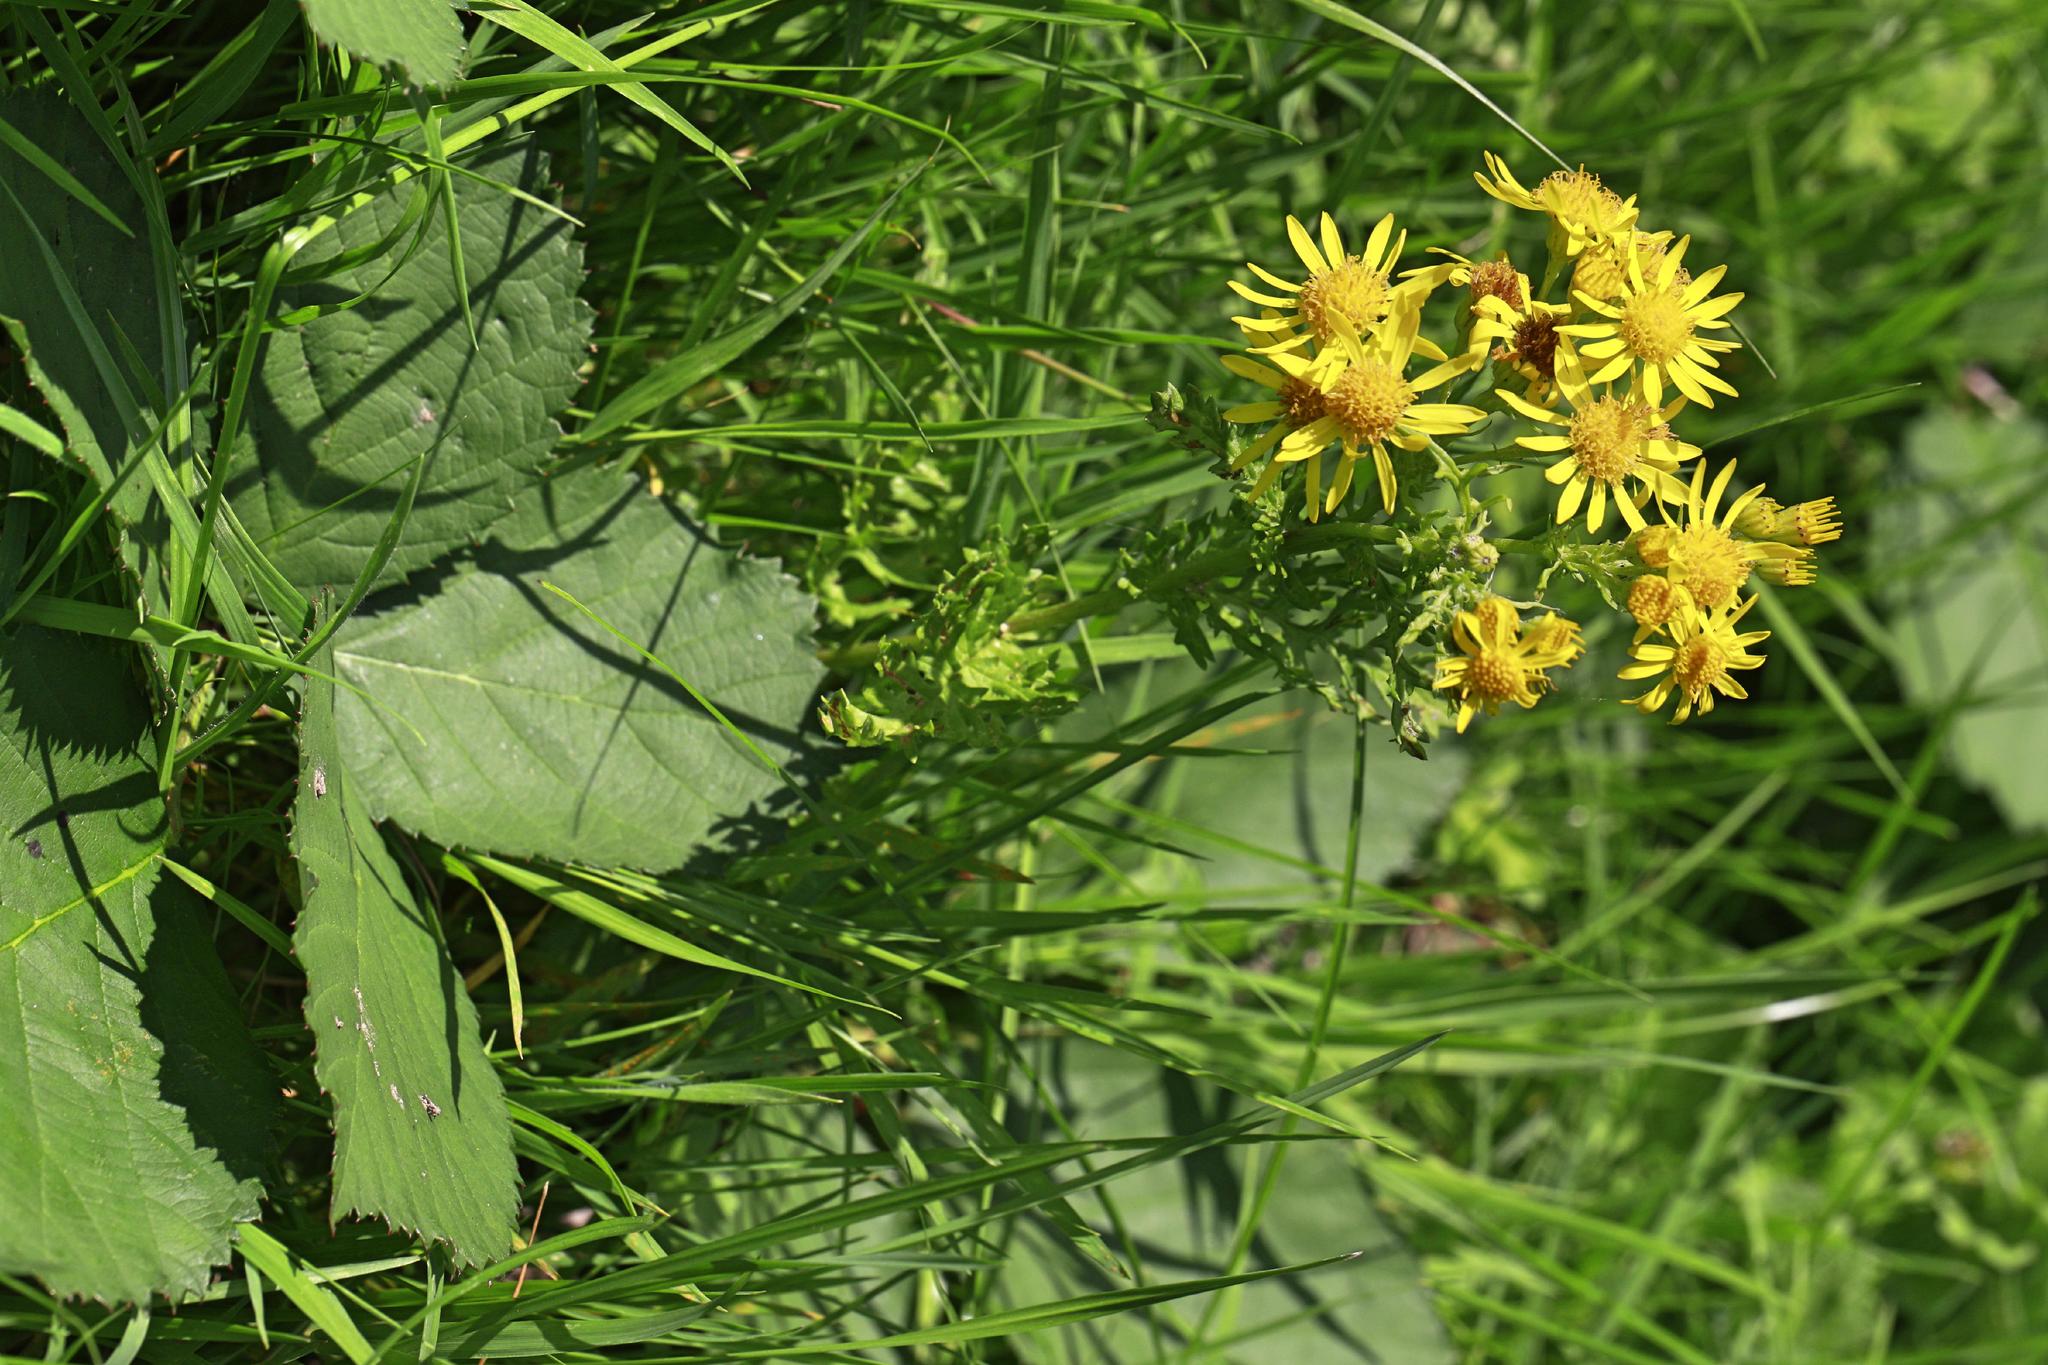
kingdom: Plantae
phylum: Tracheophyta
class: Magnoliopsida
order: Asterales
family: Asteraceae
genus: Jacobaea
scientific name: Jacobaea vulgaris
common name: Stinking willie
